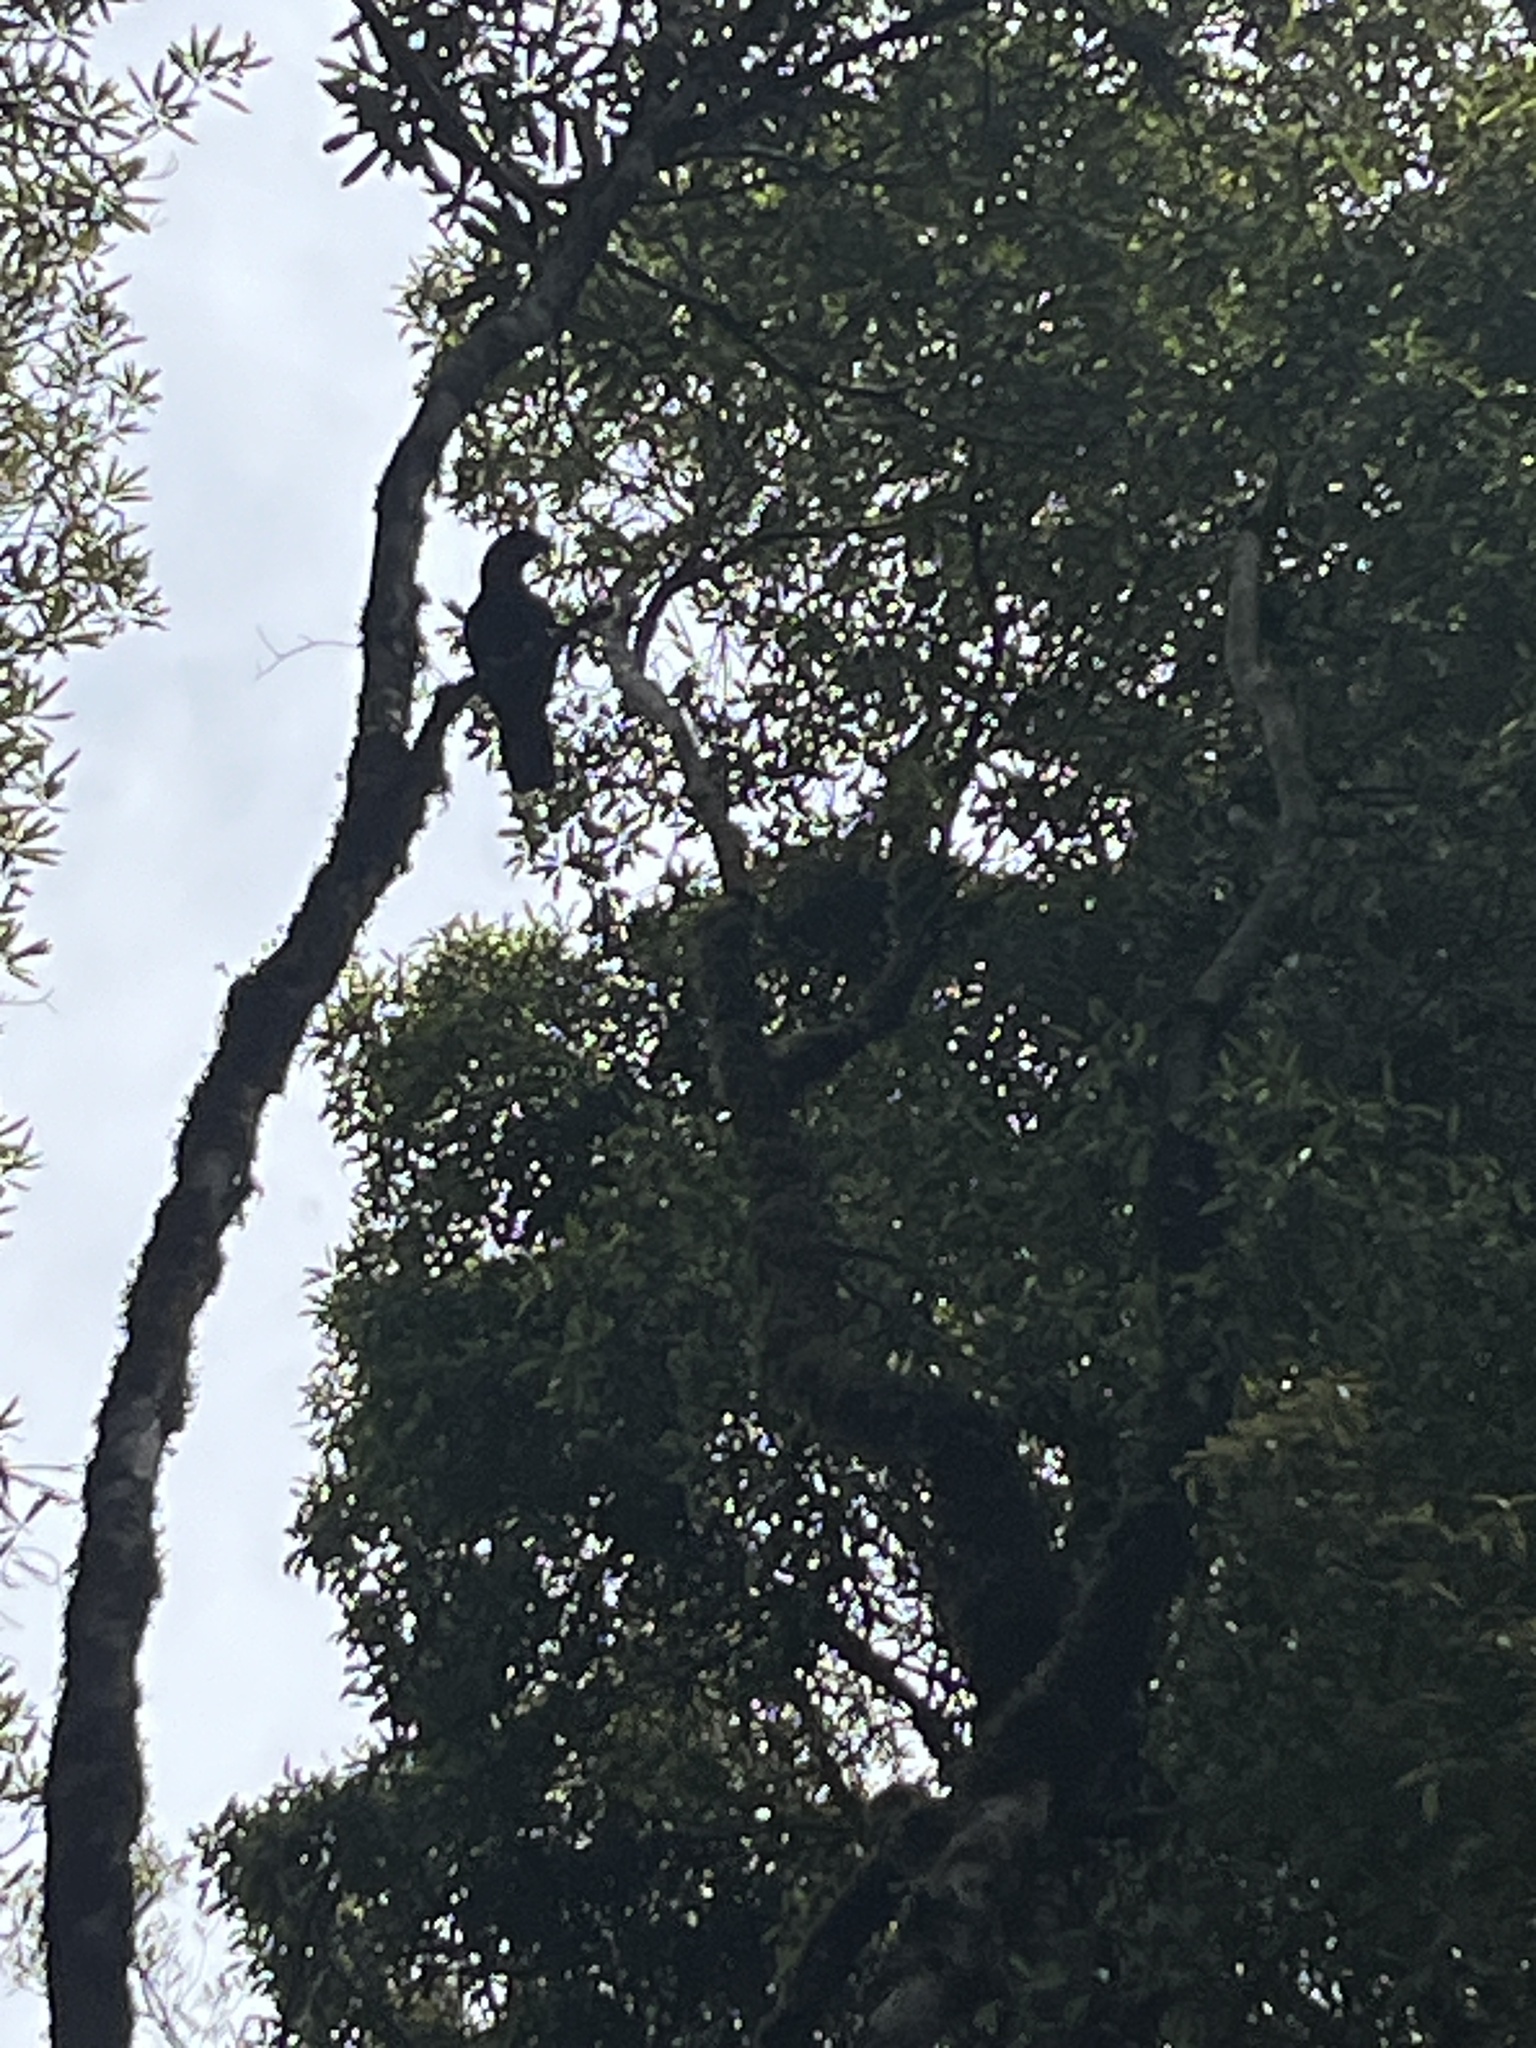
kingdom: Animalia
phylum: Chordata
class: Aves
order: Psittaciformes
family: Psittacidae
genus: Nestor
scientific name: Nestor meridionalis
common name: New zealand kaka
